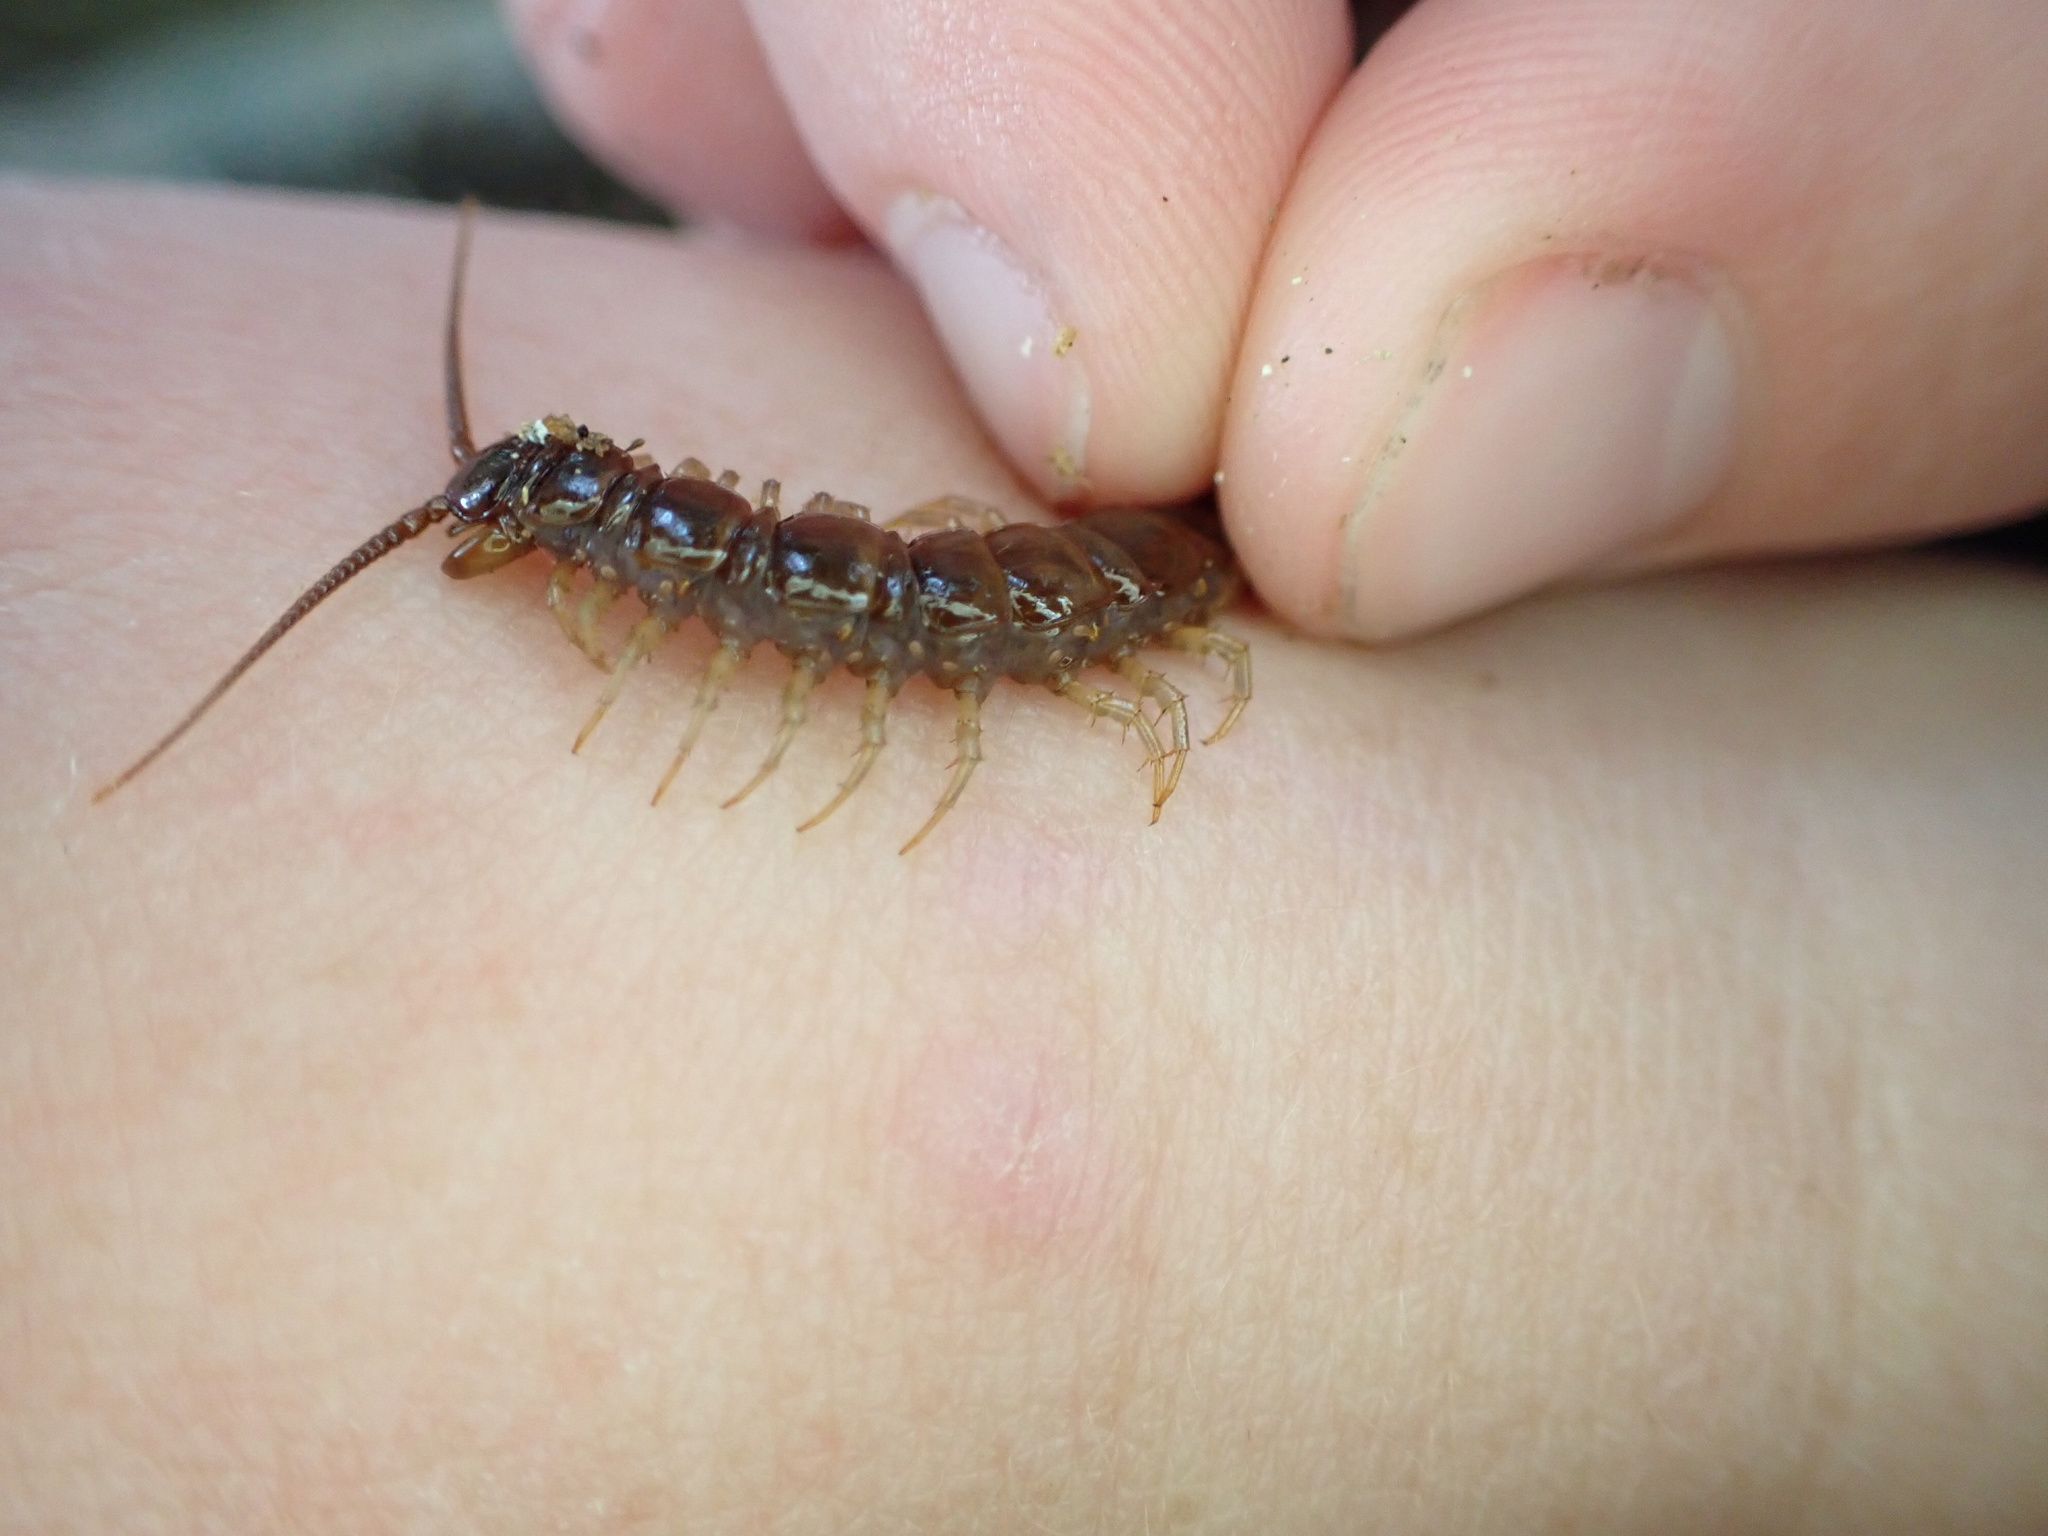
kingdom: Animalia
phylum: Arthropoda
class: Chilopoda
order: Lithobiomorpha
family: Lithobiidae
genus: Lithobius
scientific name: Lithobius forficatus
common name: Centipede
